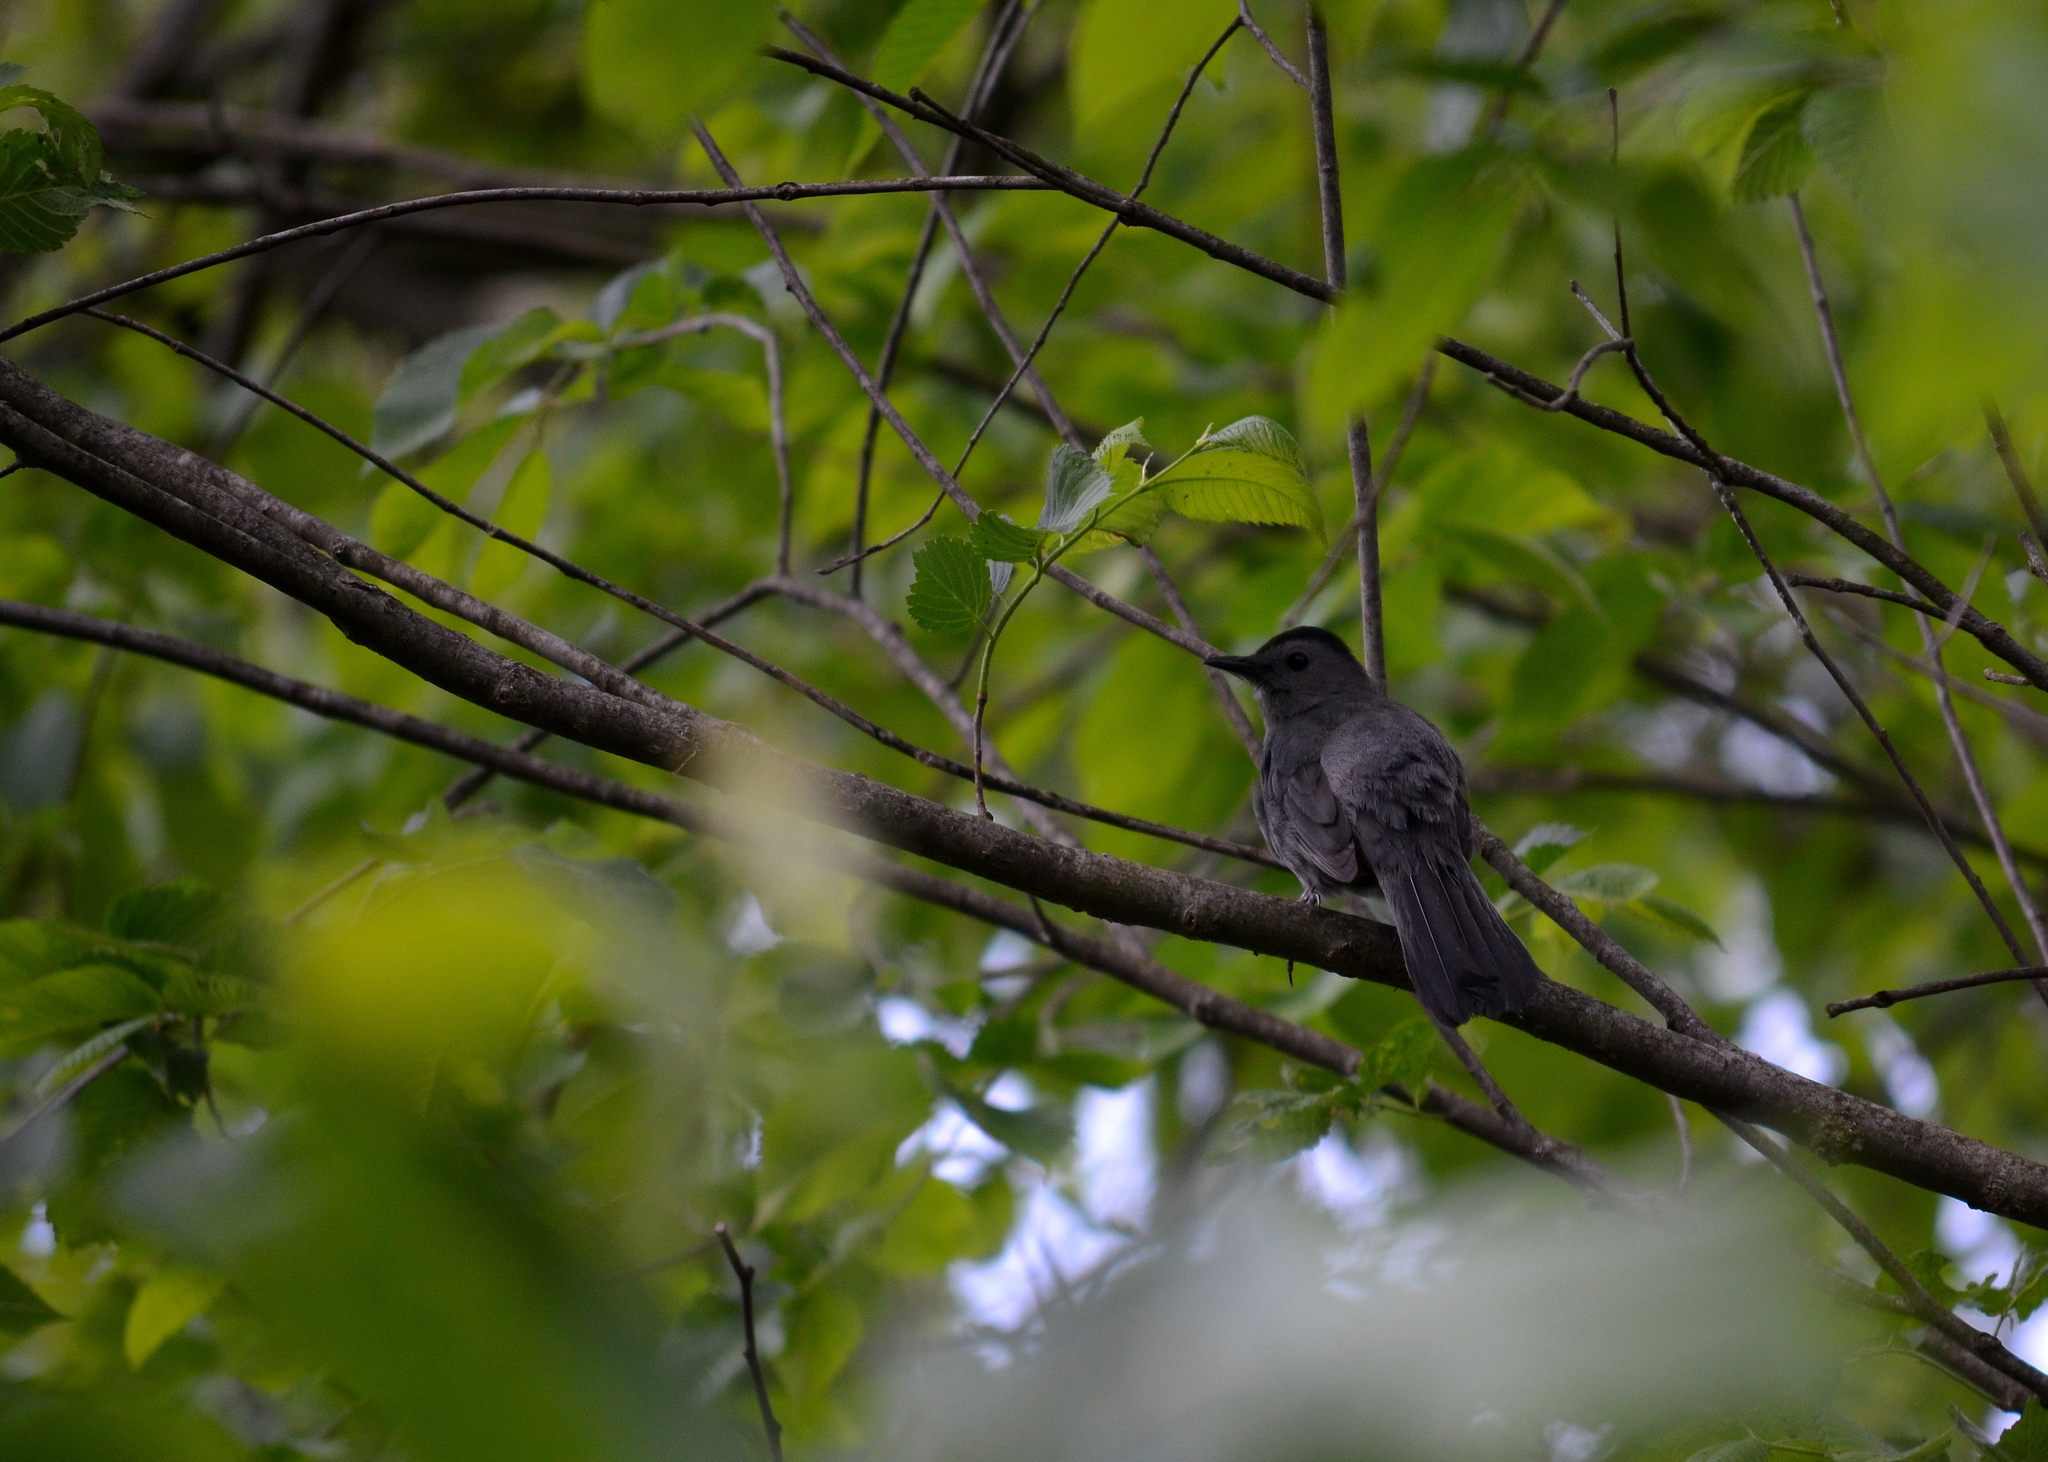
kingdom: Animalia
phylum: Chordata
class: Aves
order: Passeriformes
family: Mimidae
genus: Dumetella
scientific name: Dumetella carolinensis
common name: Gray catbird
